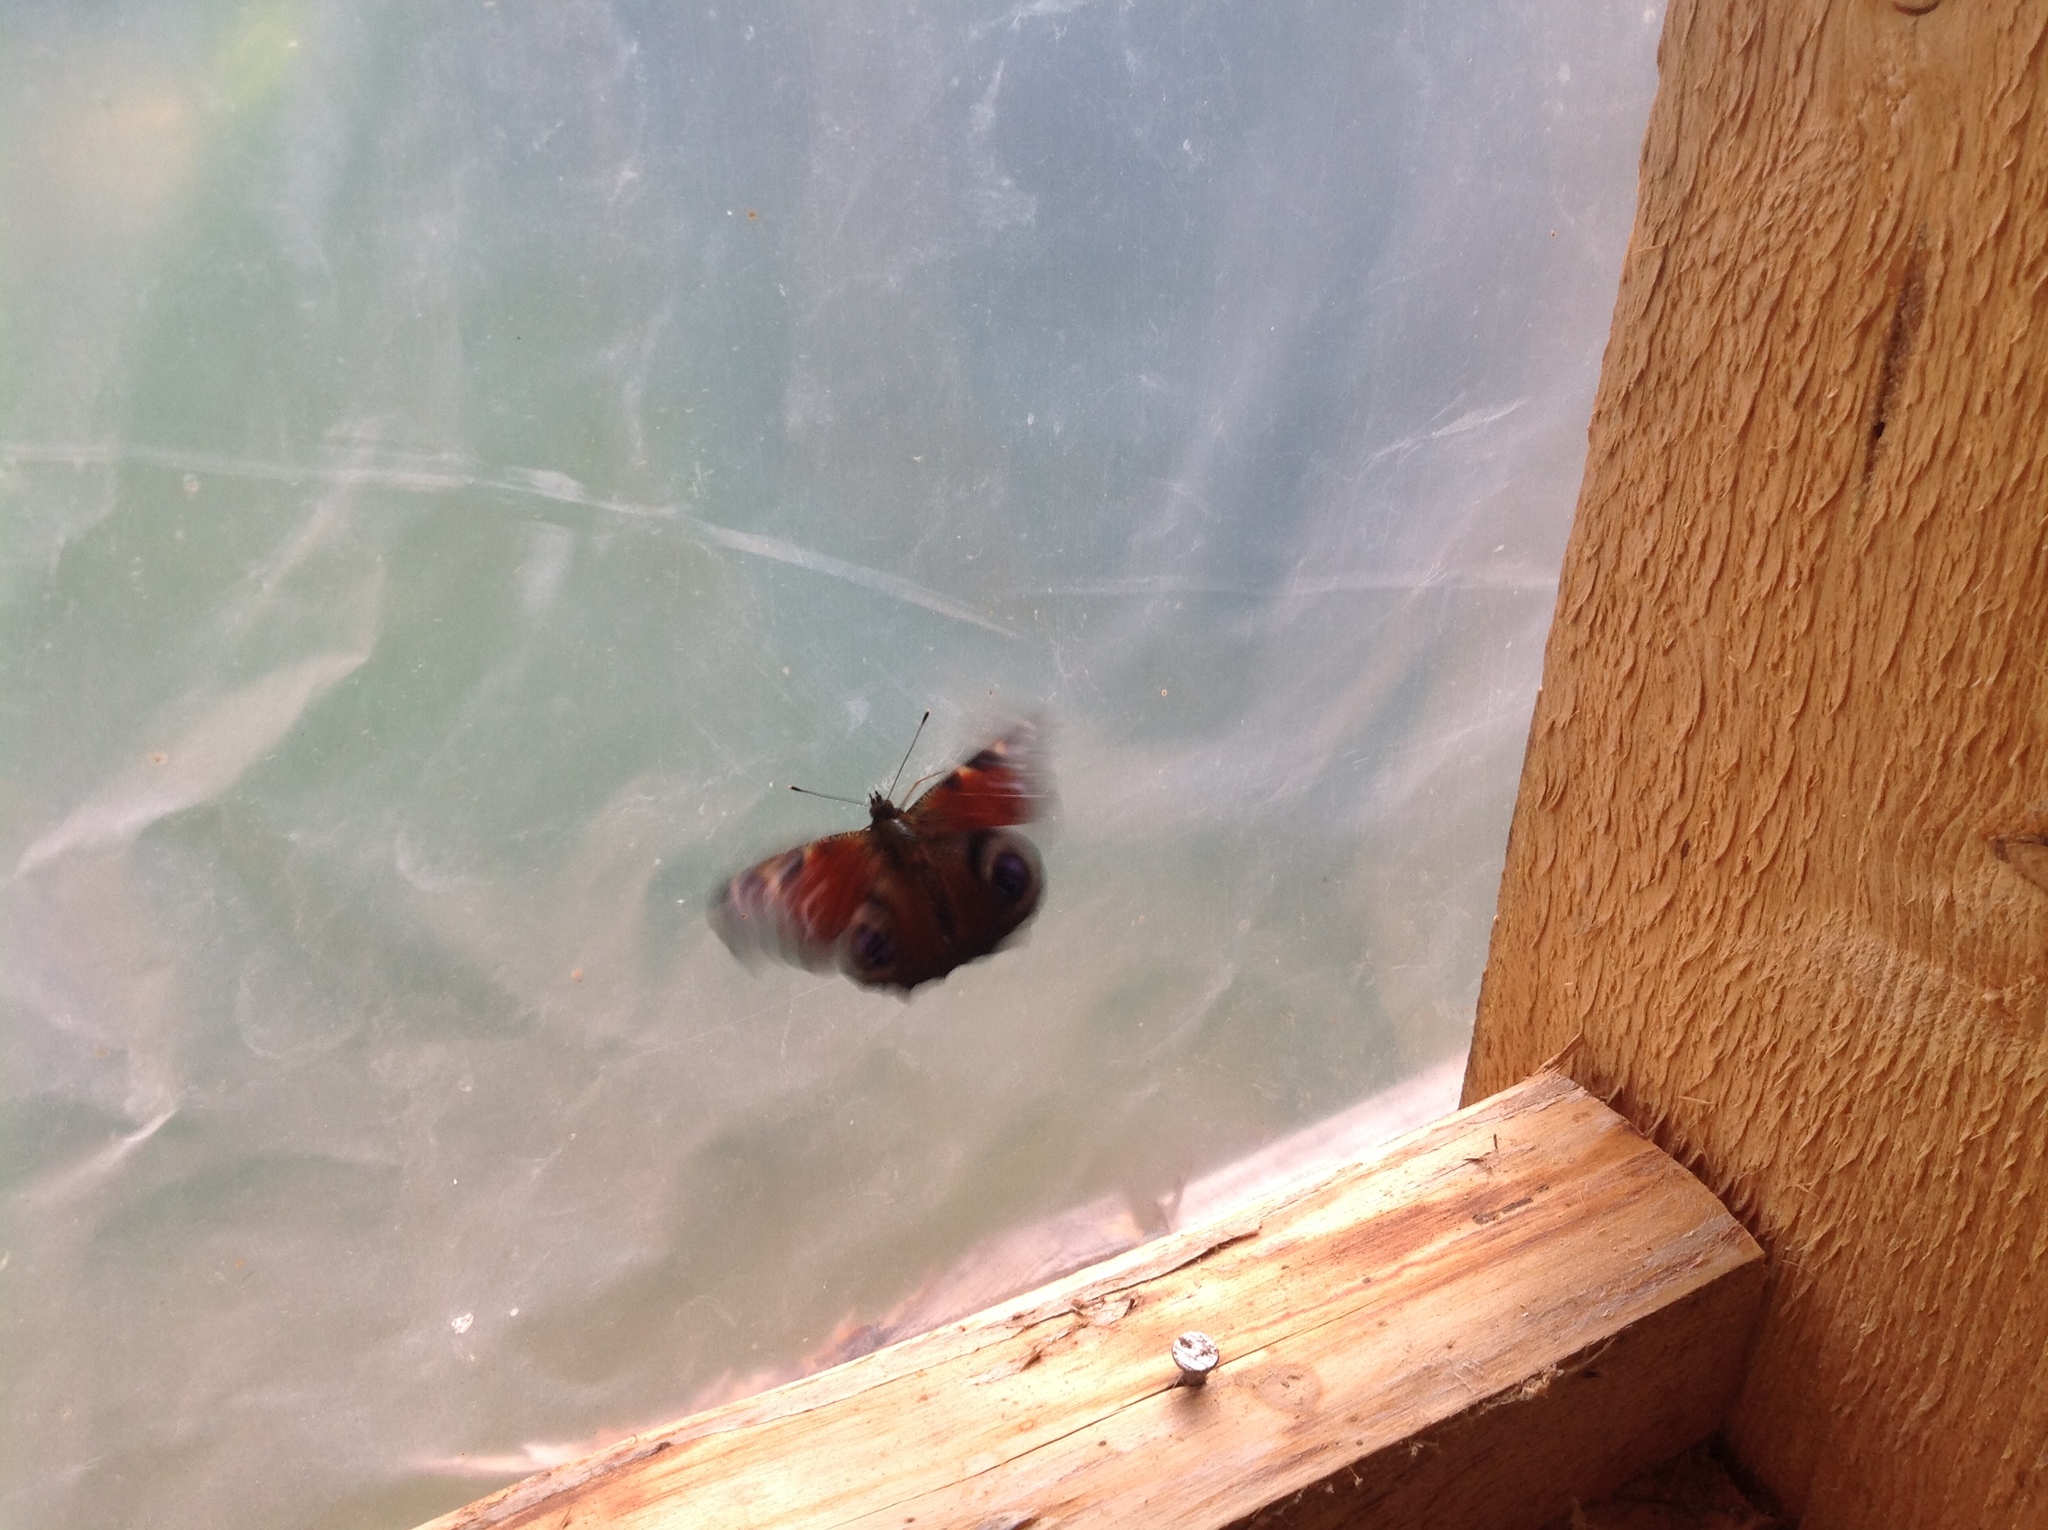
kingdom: Animalia
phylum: Arthropoda
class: Insecta
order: Lepidoptera
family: Nymphalidae
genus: Aglais
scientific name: Aglais io
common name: Peacock
